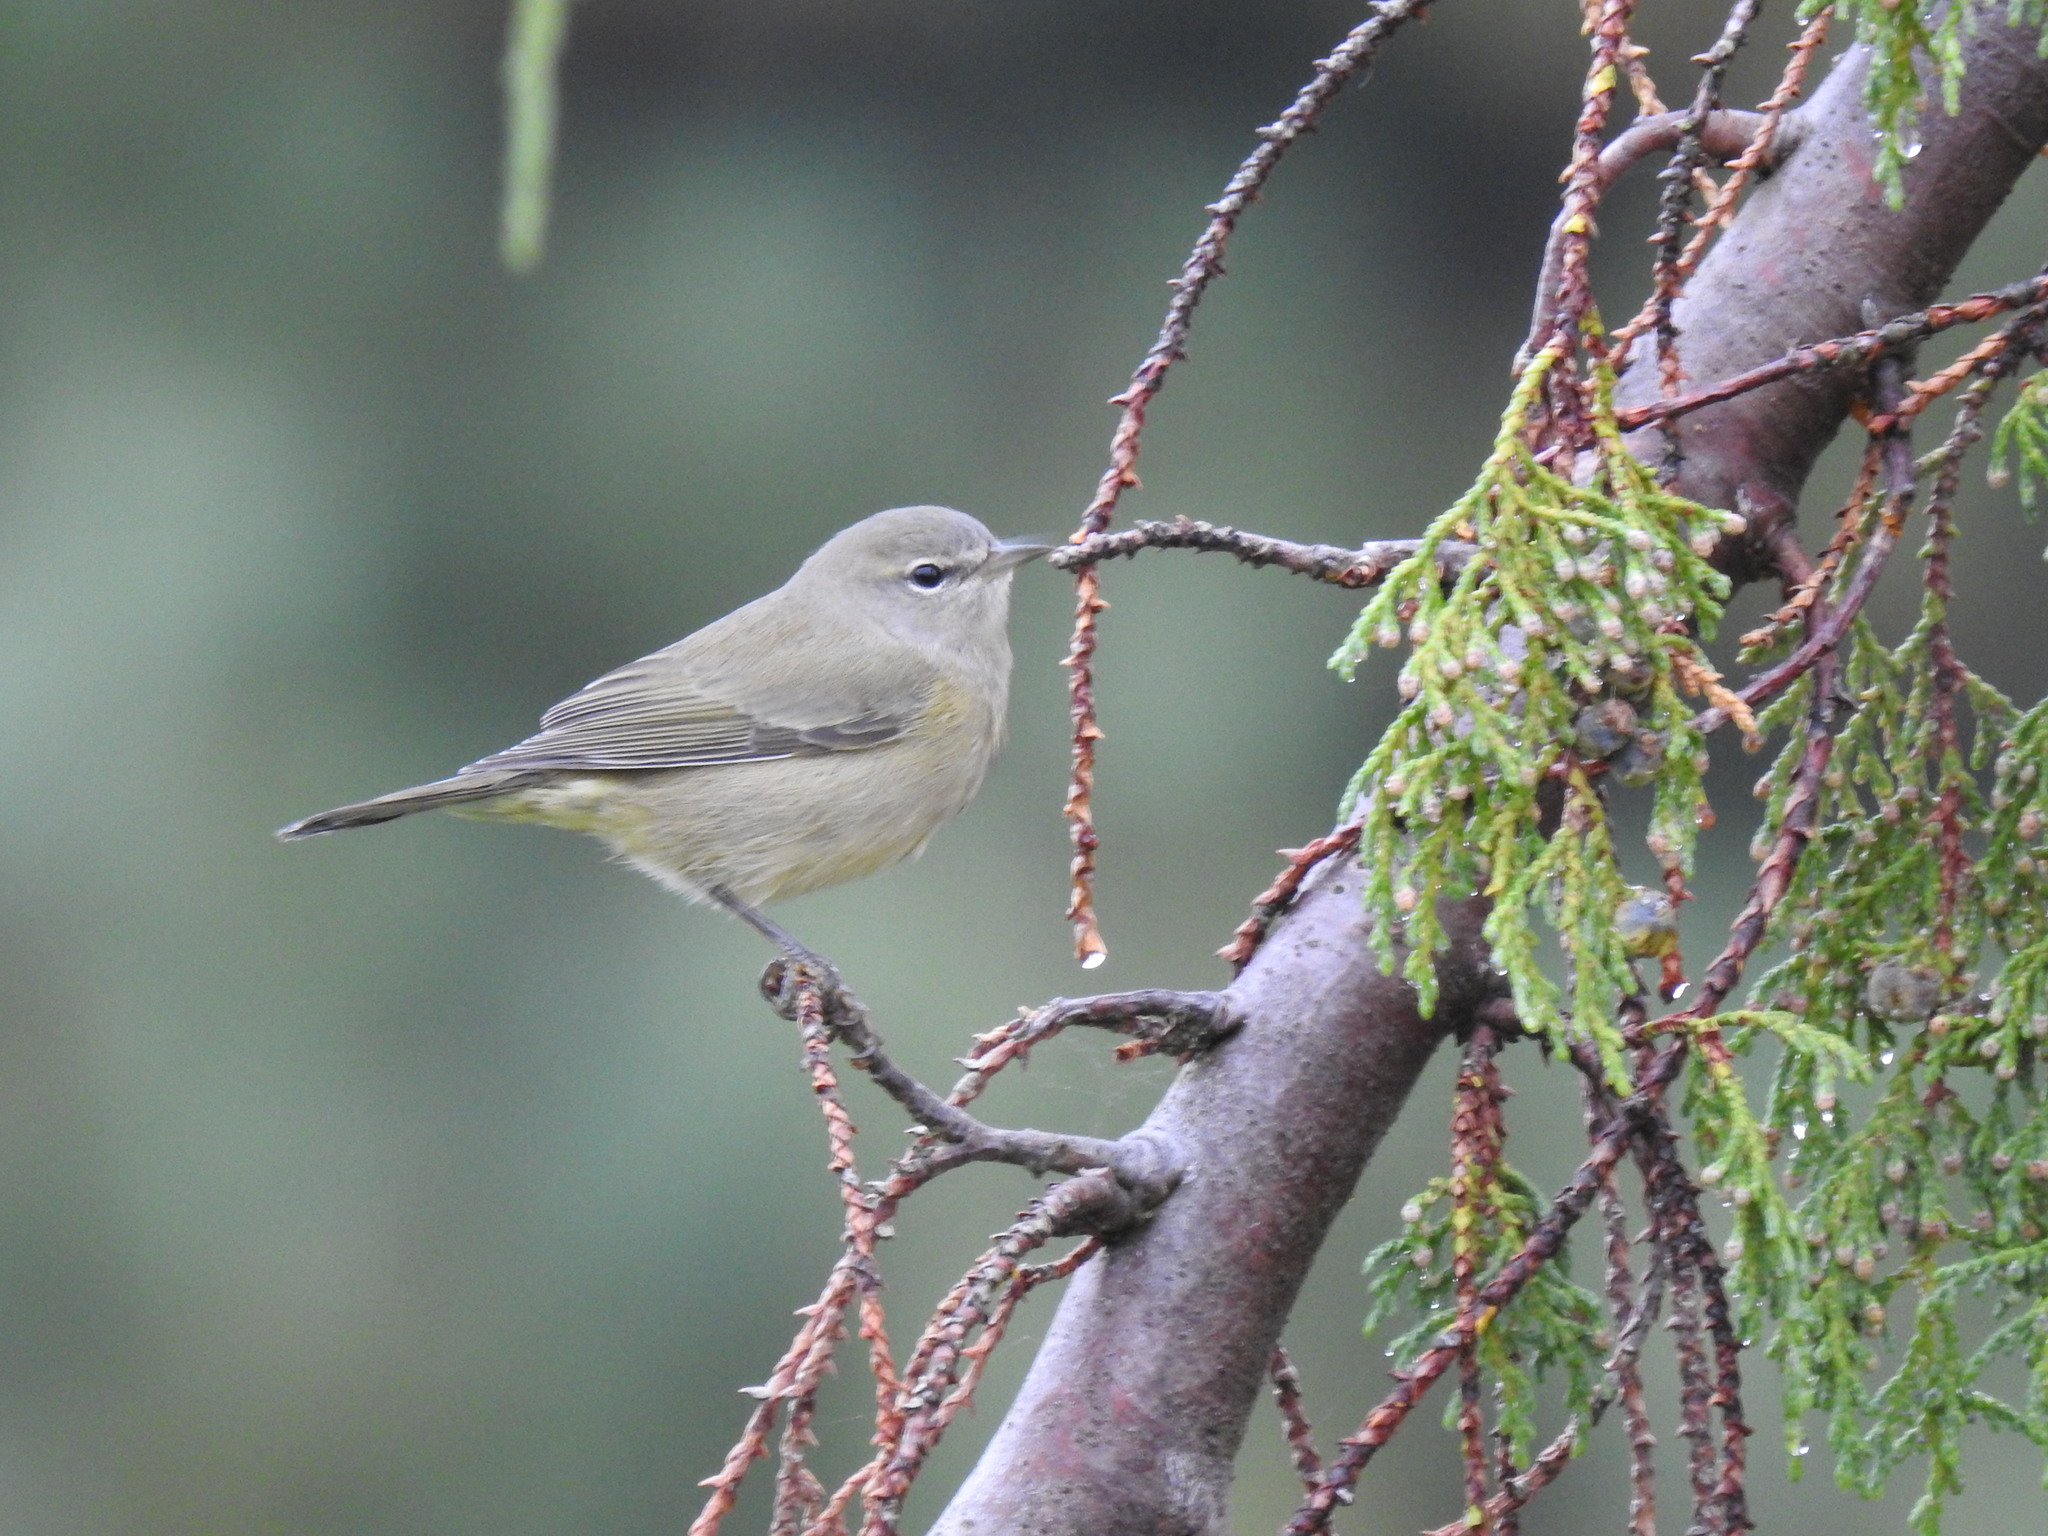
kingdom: Animalia
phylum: Chordata
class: Aves
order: Passeriformes
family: Parulidae
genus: Leiothlypis
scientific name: Leiothlypis celata
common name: Orange-crowned warbler
